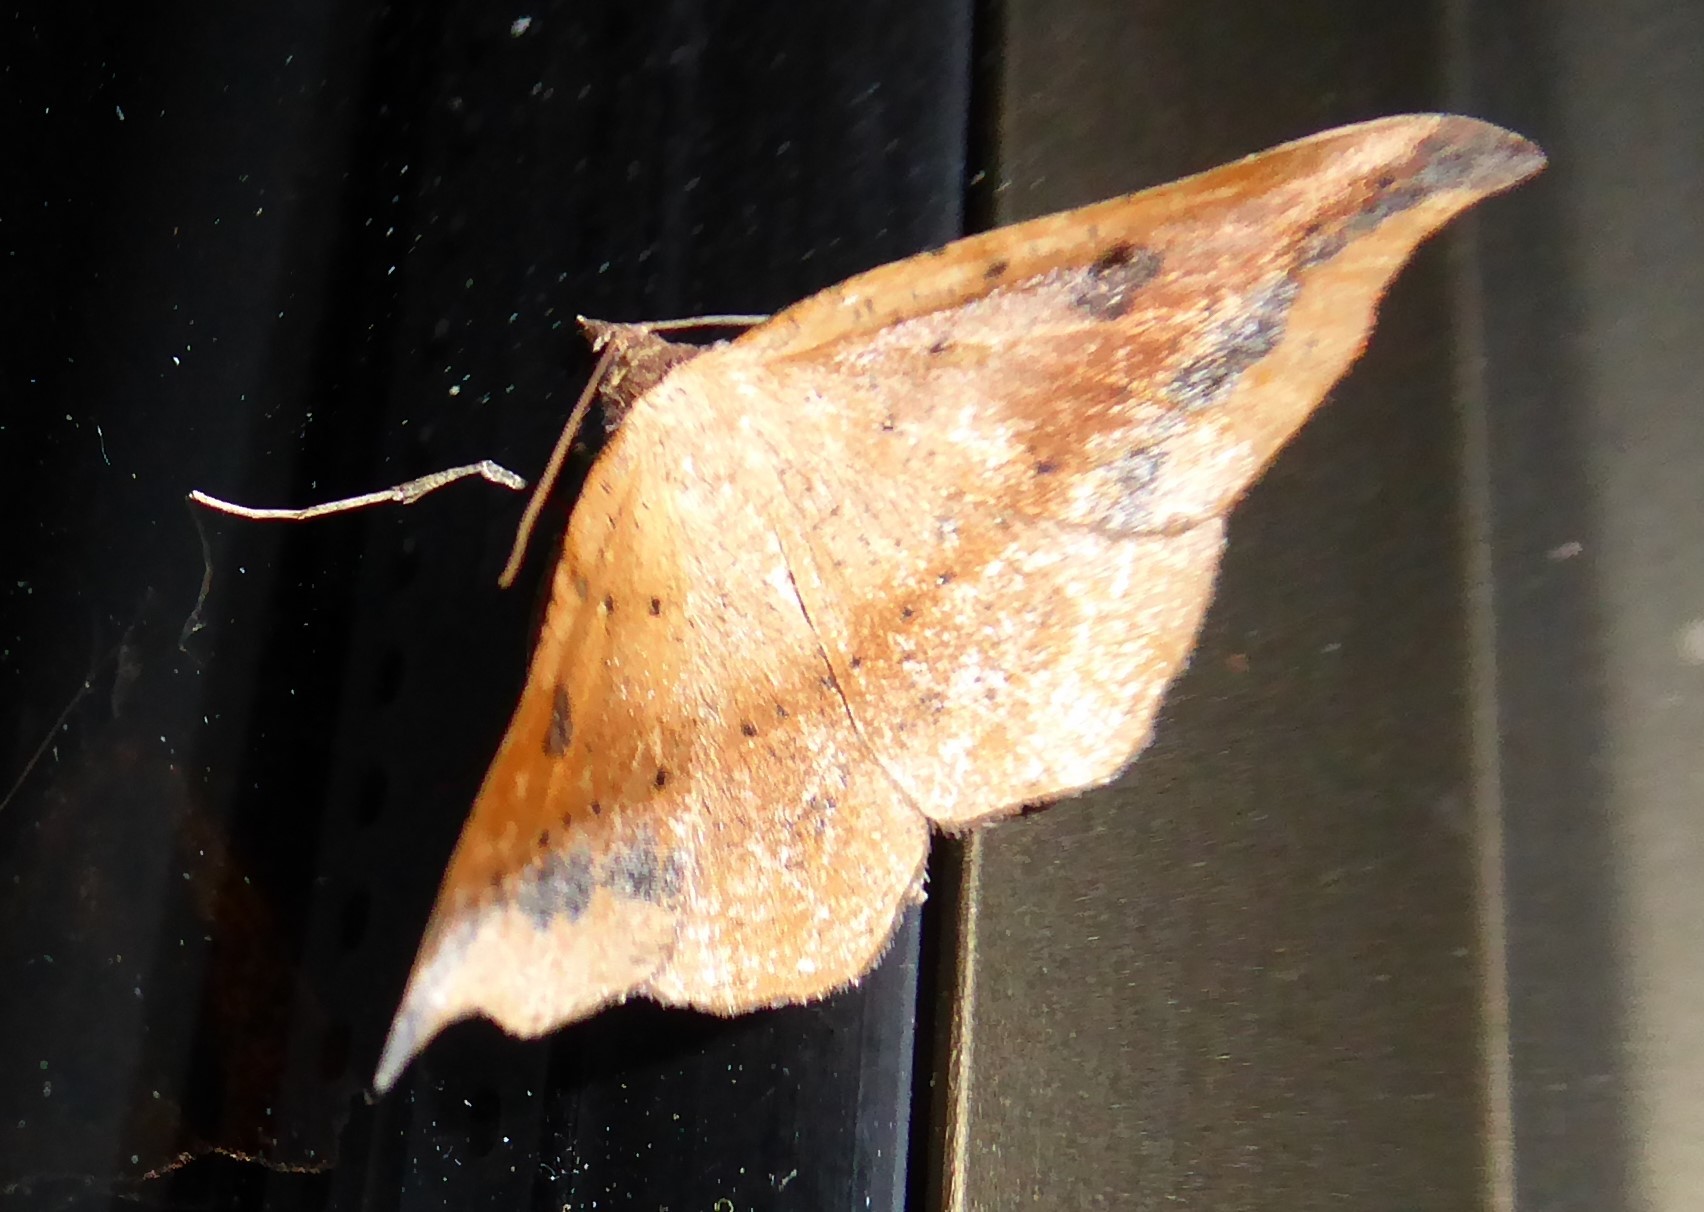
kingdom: Animalia
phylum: Arthropoda
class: Insecta
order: Lepidoptera
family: Geometridae
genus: Sarisa
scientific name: Sarisa muriferata
